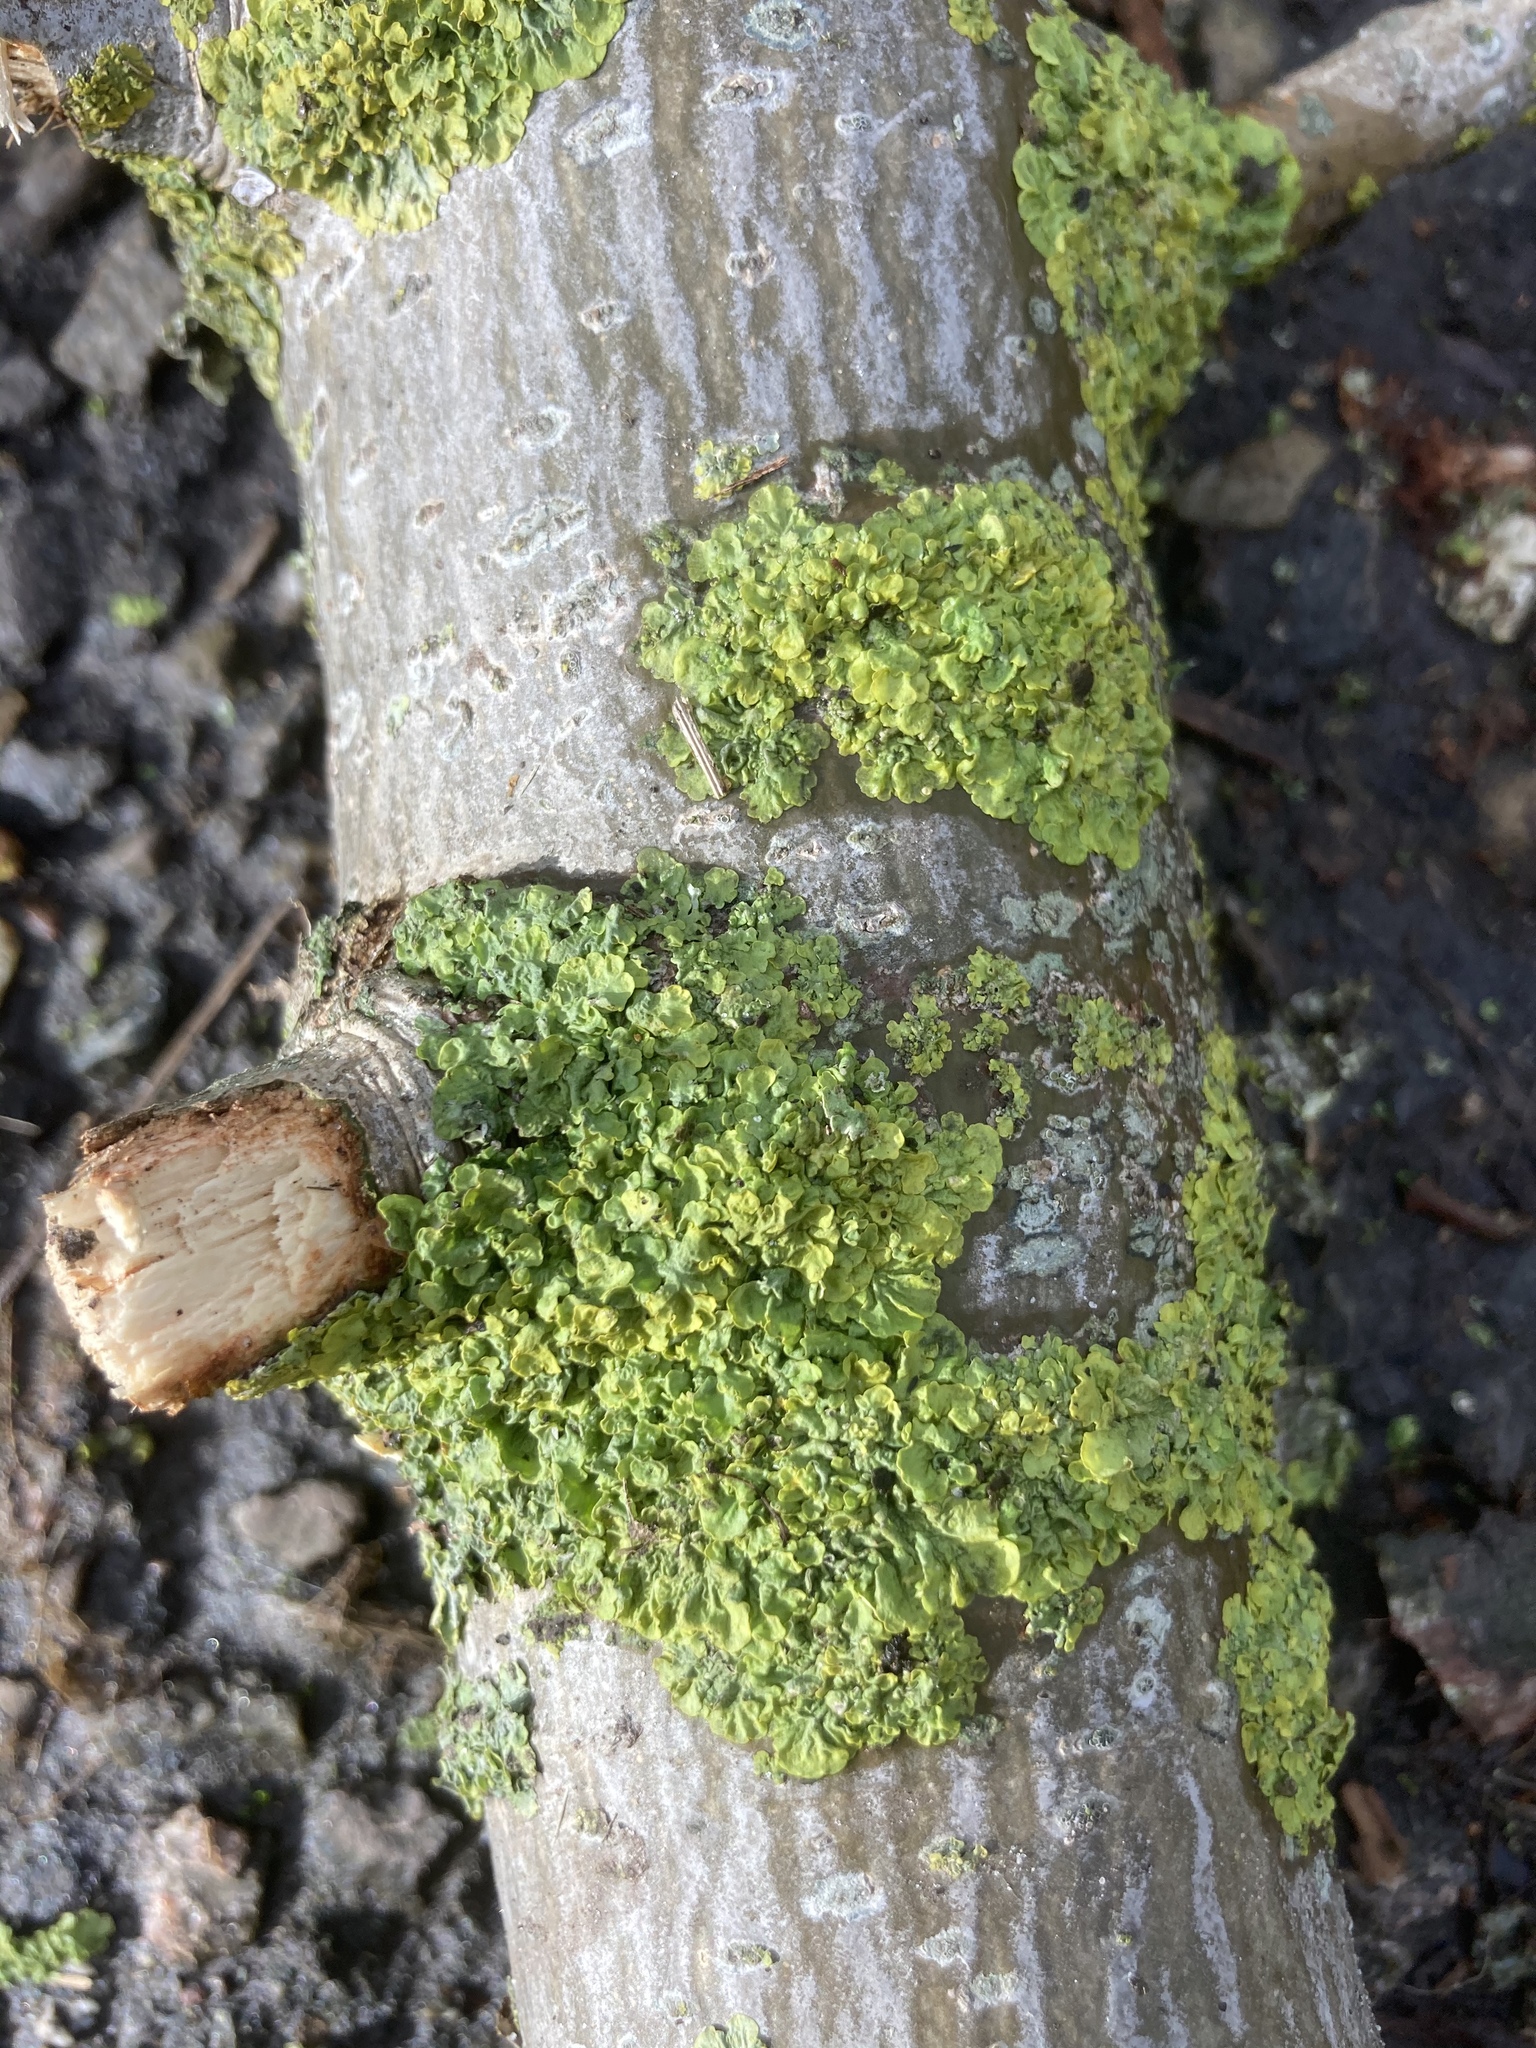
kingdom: Fungi
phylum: Ascomycota
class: Lecanoromycetes
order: Teloschistales
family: Teloschistaceae
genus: Xanthoria
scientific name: Xanthoria parietina
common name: Common orange lichen
